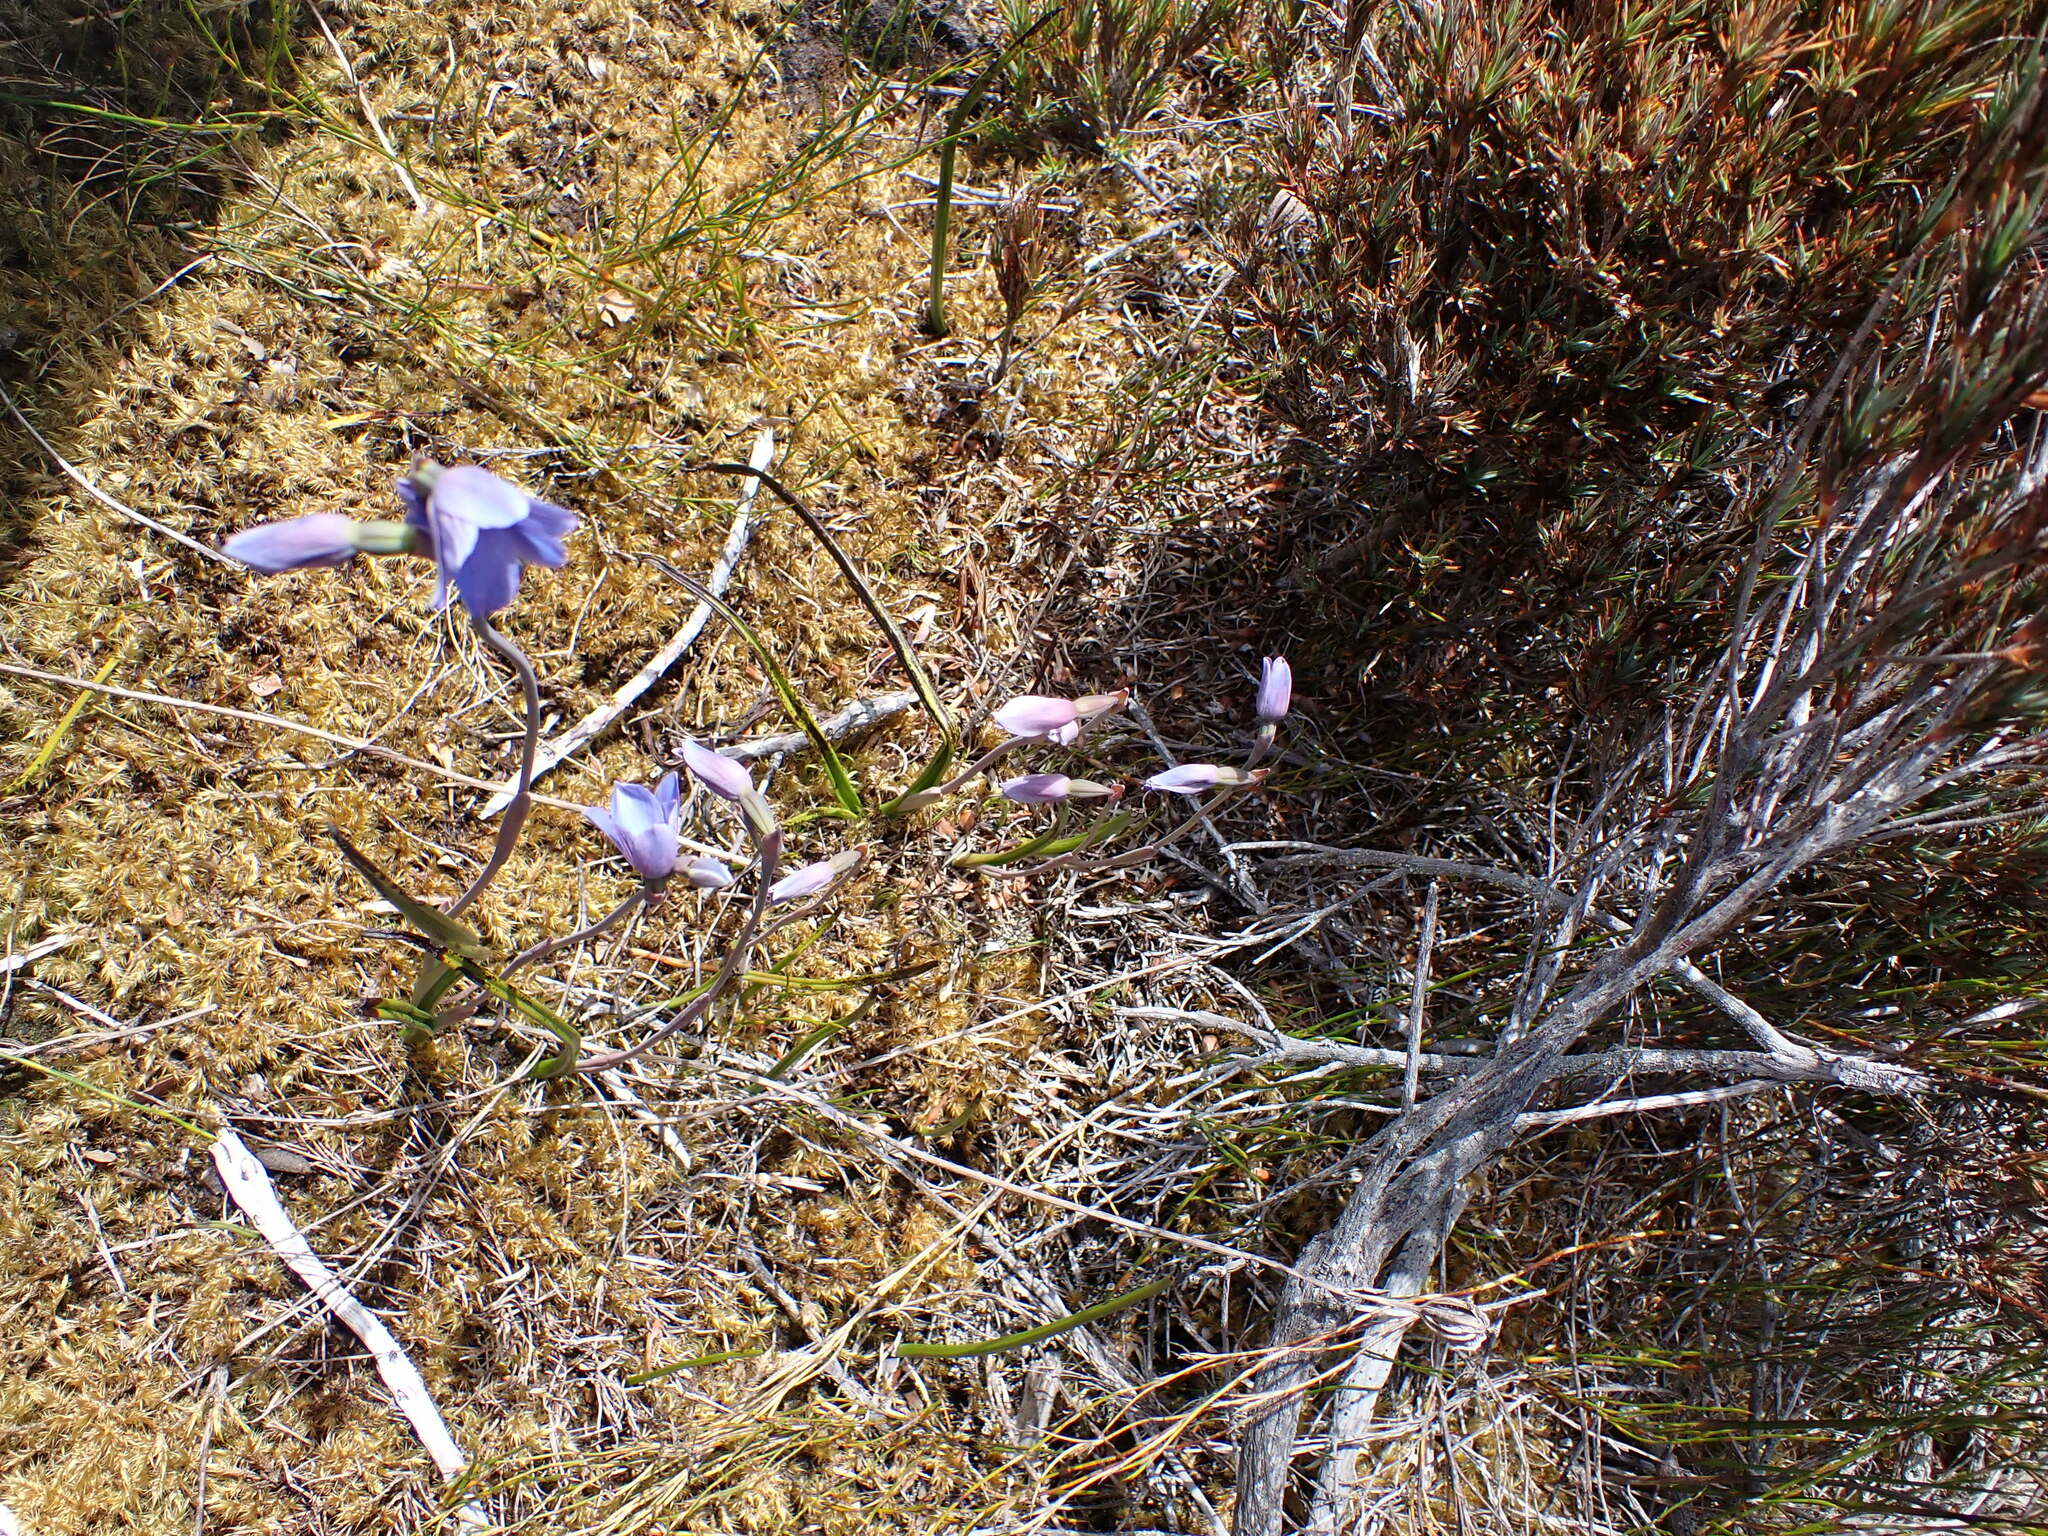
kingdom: Plantae
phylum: Tracheophyta
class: Liliopsida
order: Asparagales
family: Orchidaceae
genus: Thelymitra
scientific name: Thelymitra cyanea
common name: Blue sun-orchid
